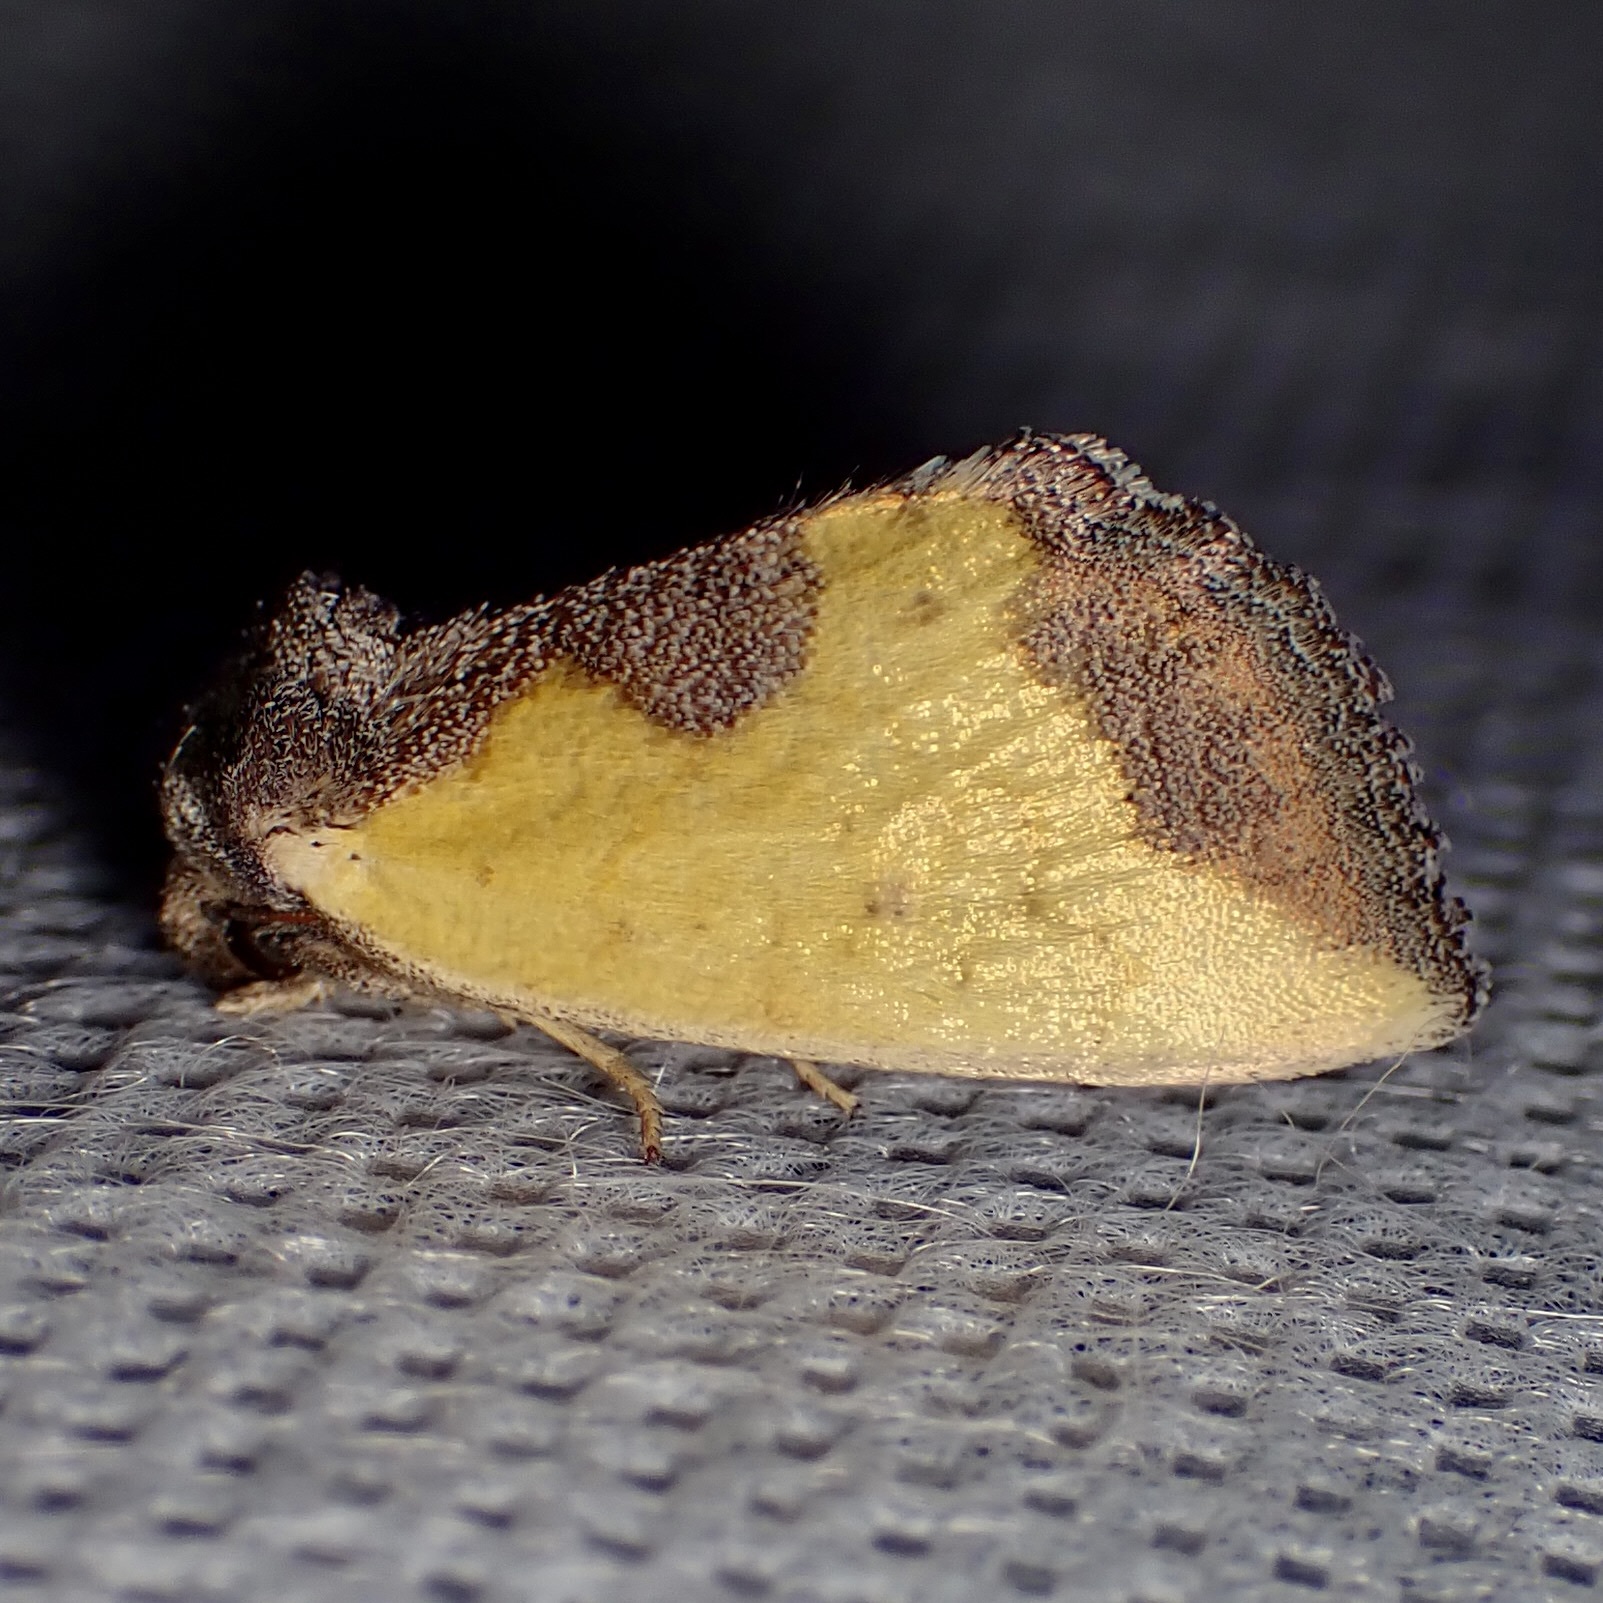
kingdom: Animalia
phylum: Arthropoda
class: Insecta
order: Lepidoptera
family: Noctuidae
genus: Stiria
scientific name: Stiria satana
